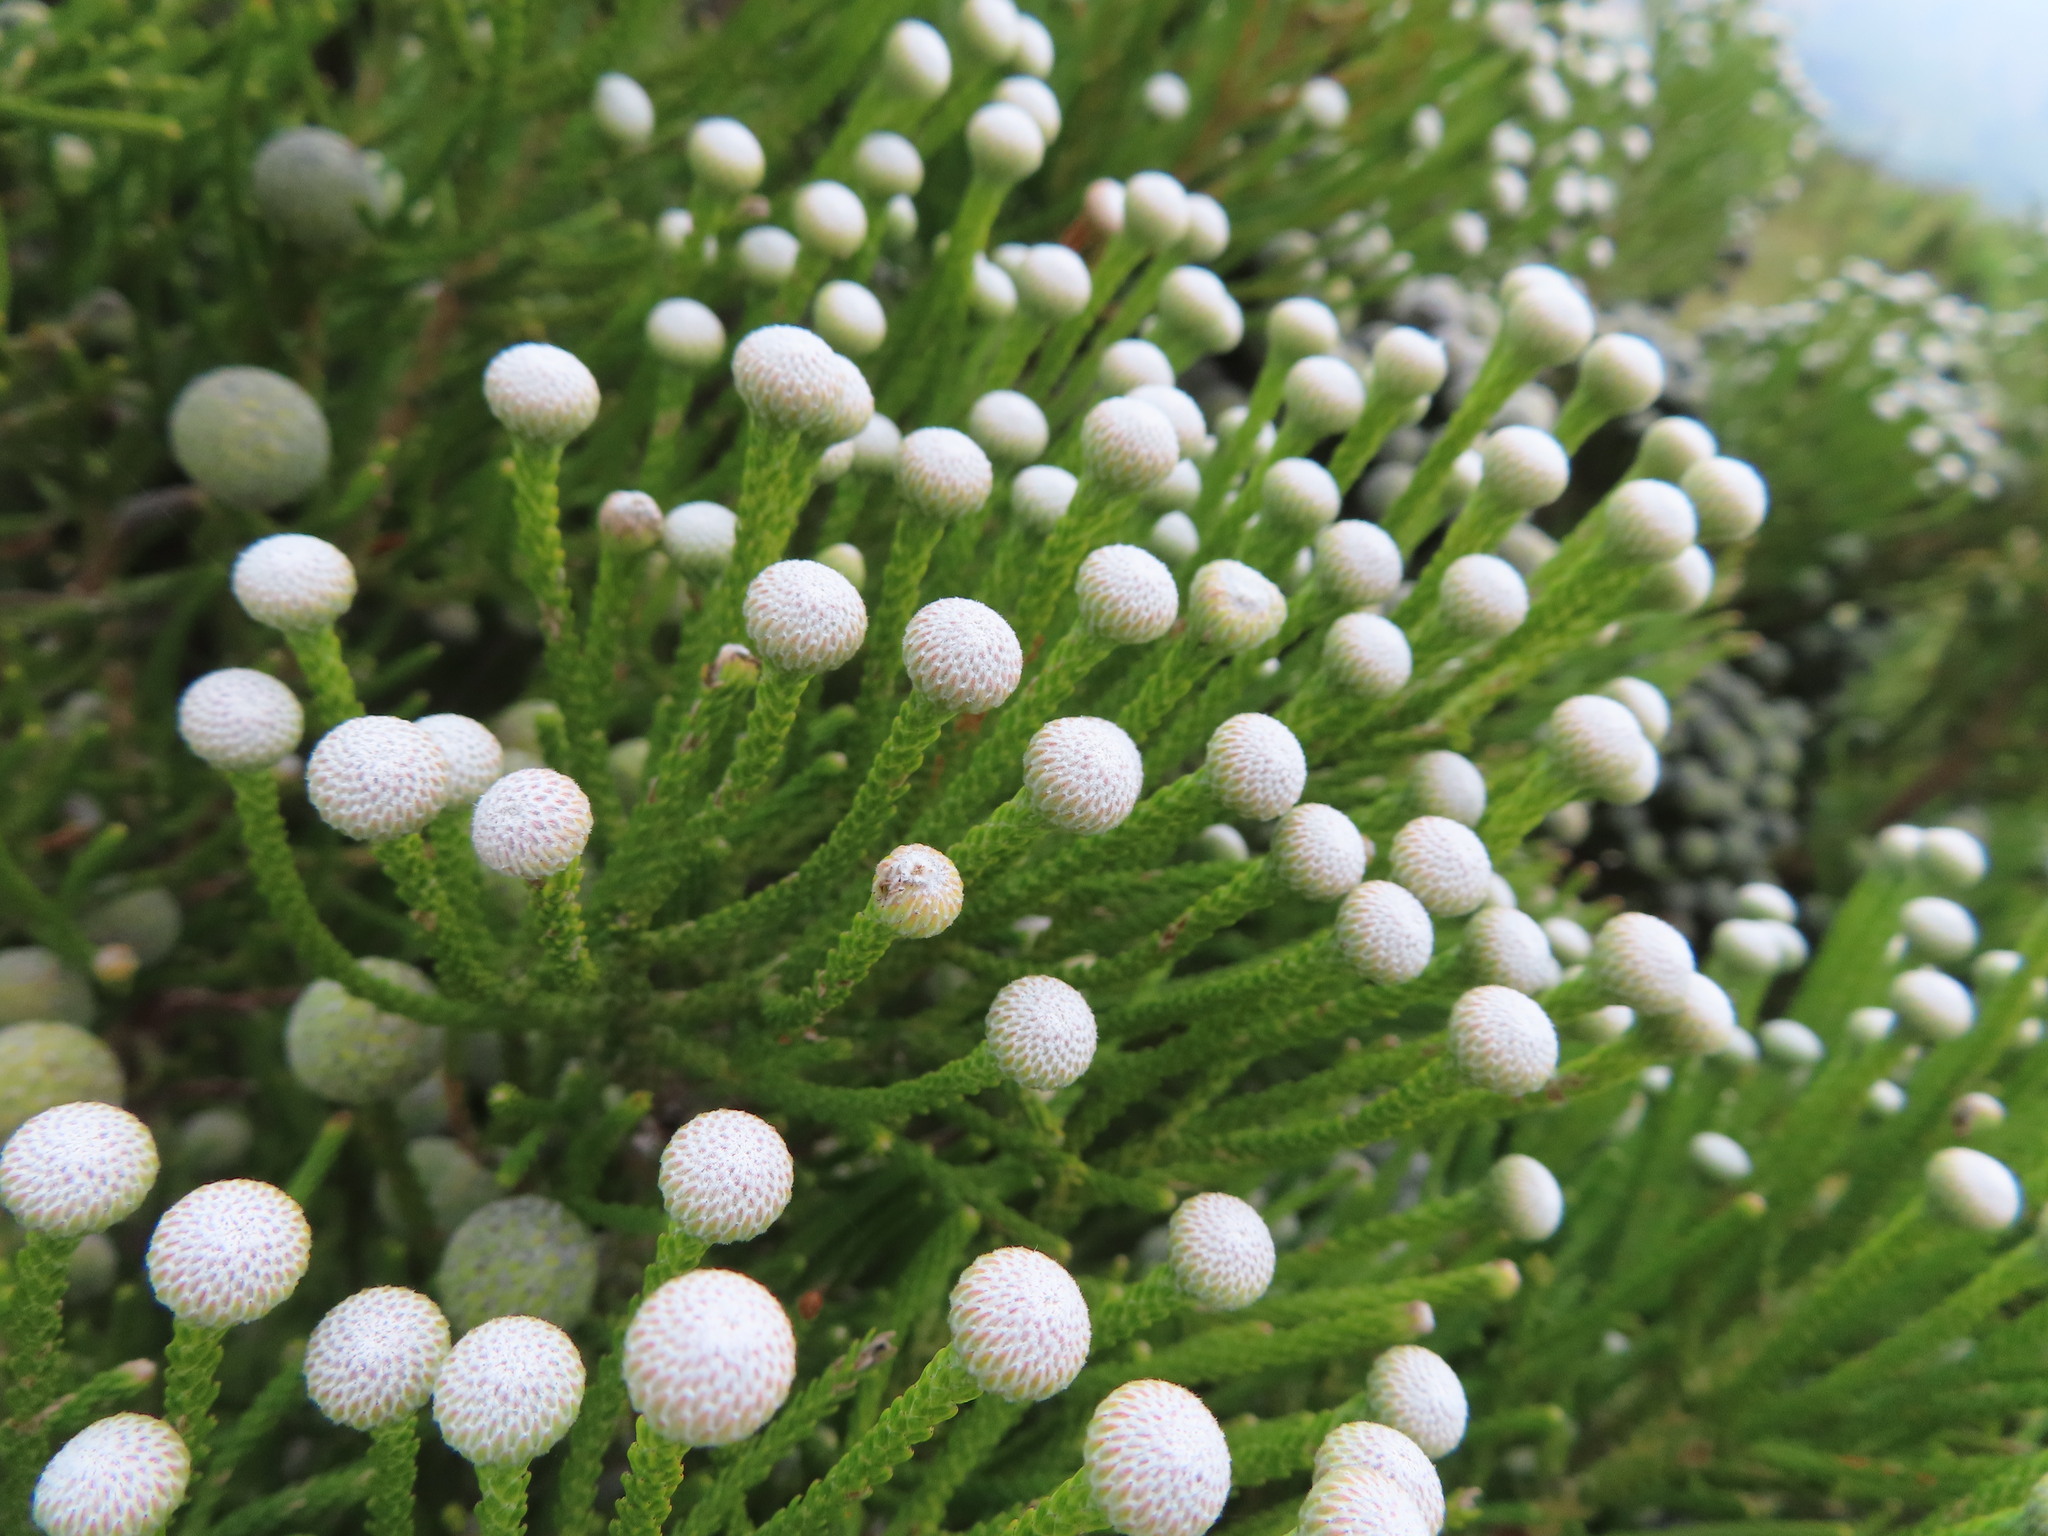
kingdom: Plantae
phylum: Tracheophyta
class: Magnoliopsida
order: Bruniales
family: Bruniaceae
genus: Brunia
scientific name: Brunia noduliflora
